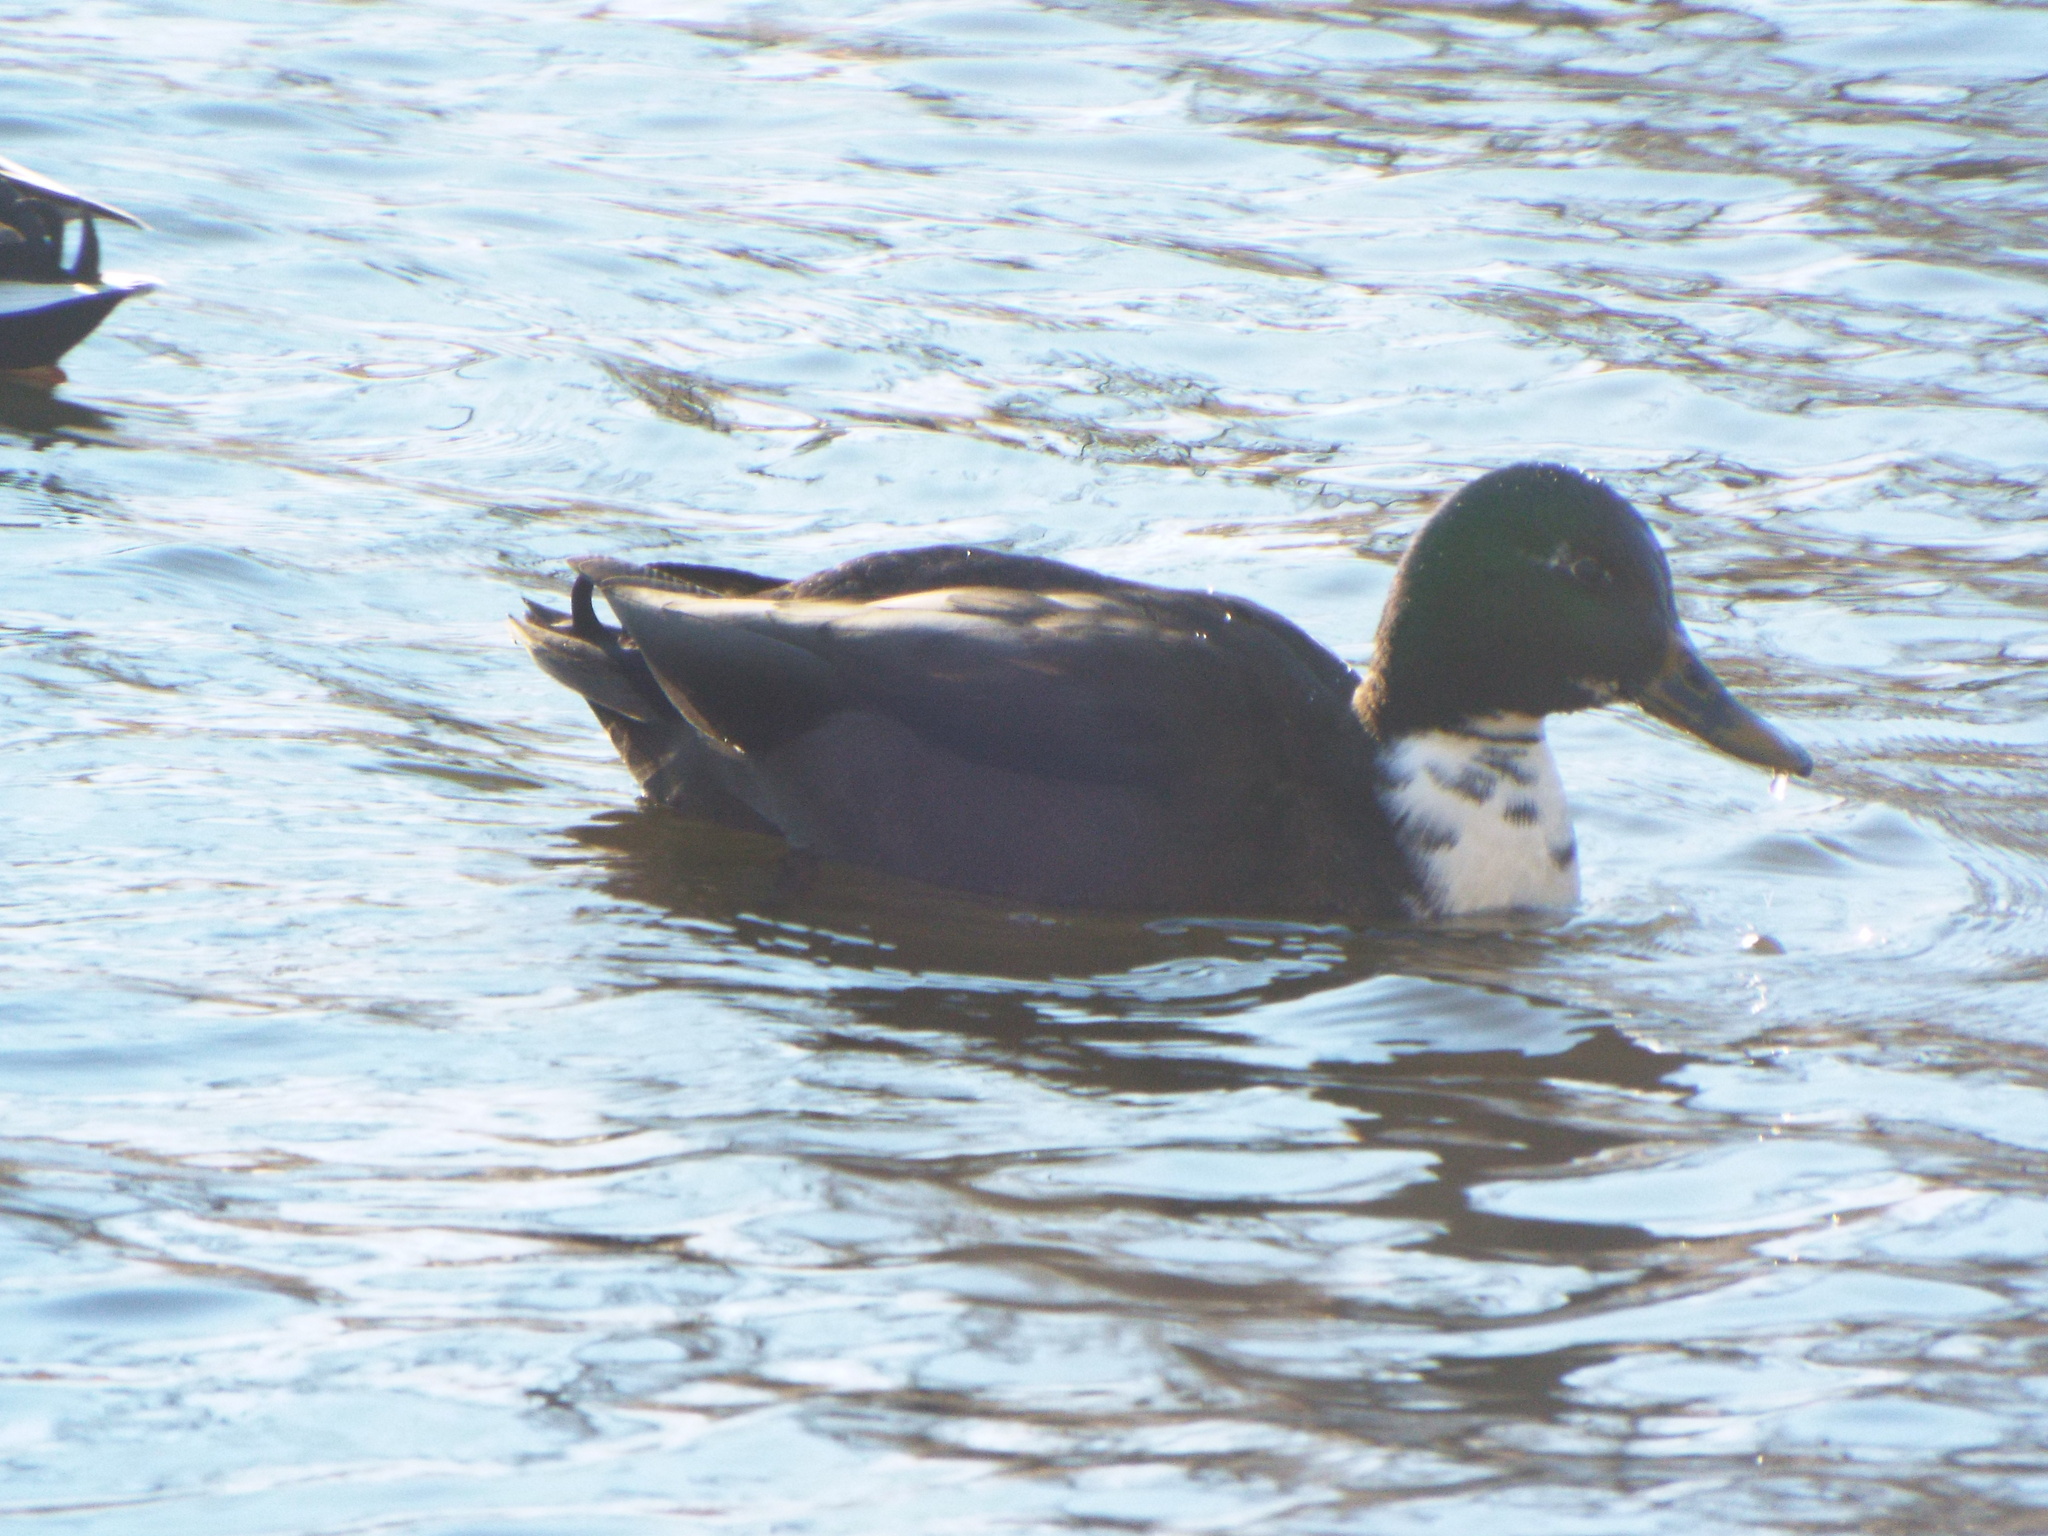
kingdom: Animalia
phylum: Chordata
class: Aves
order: Anseriformes
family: Anatidae
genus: Anas
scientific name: Anas platyrhynchos
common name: Mallard
